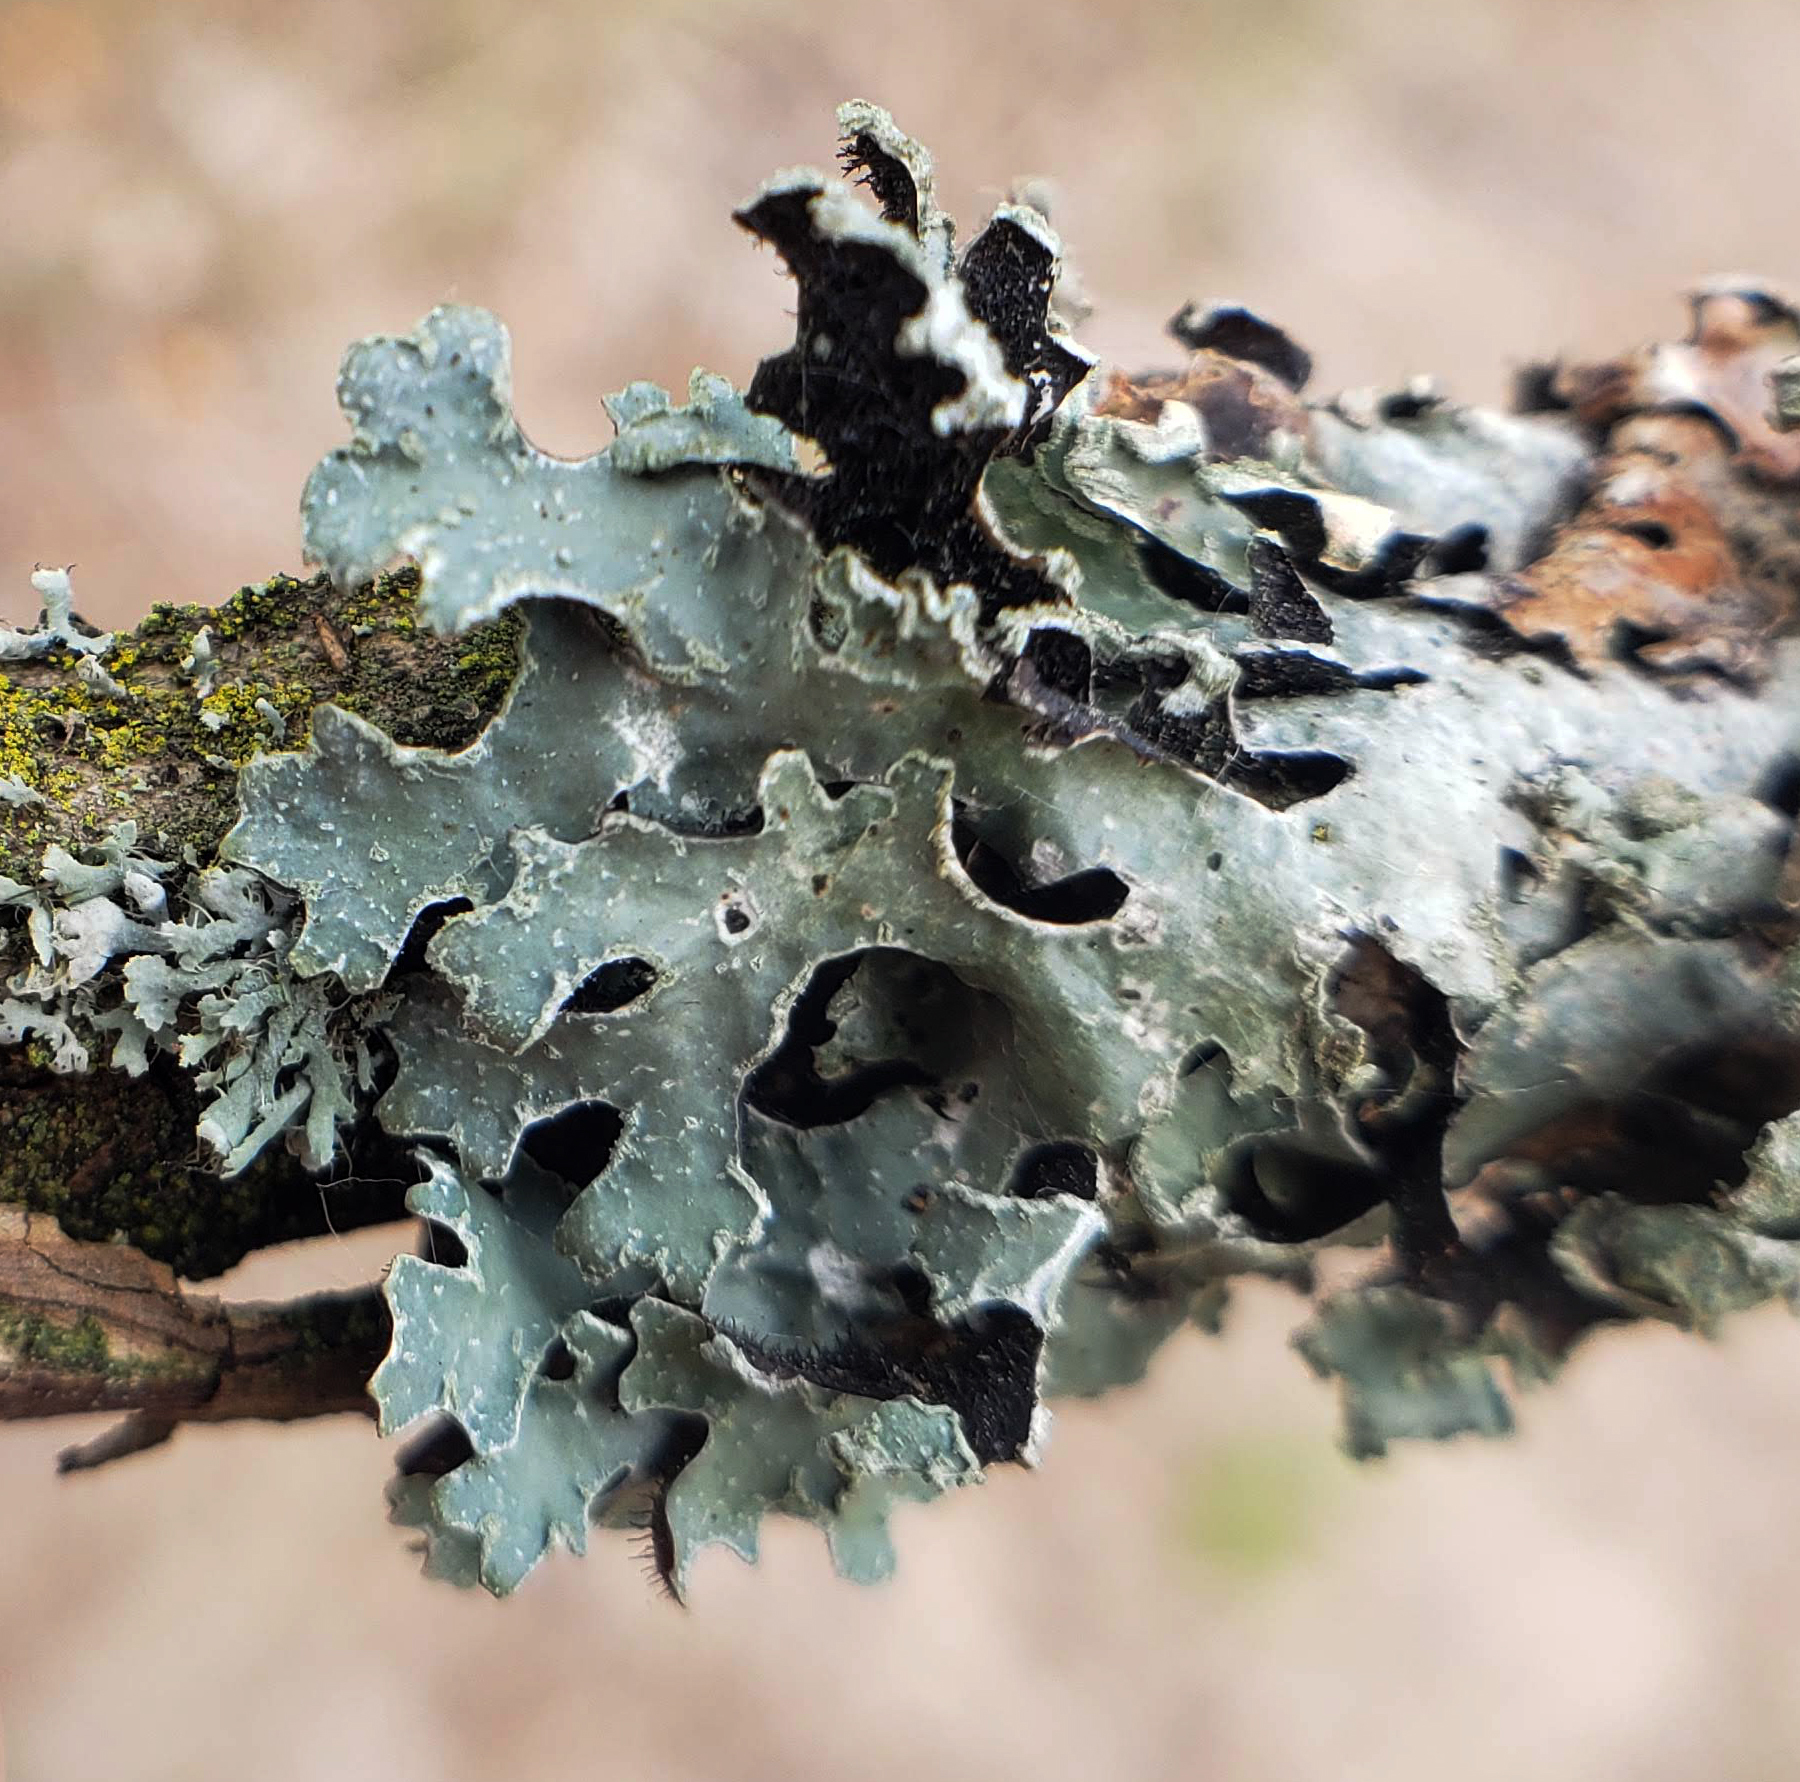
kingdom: Fungi
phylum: Ascomycota
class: Lecanoromycetes
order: Lecanorales
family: Parmeliaceae
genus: Parmelia
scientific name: Parmelia sulcata
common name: Netted shield lichen
